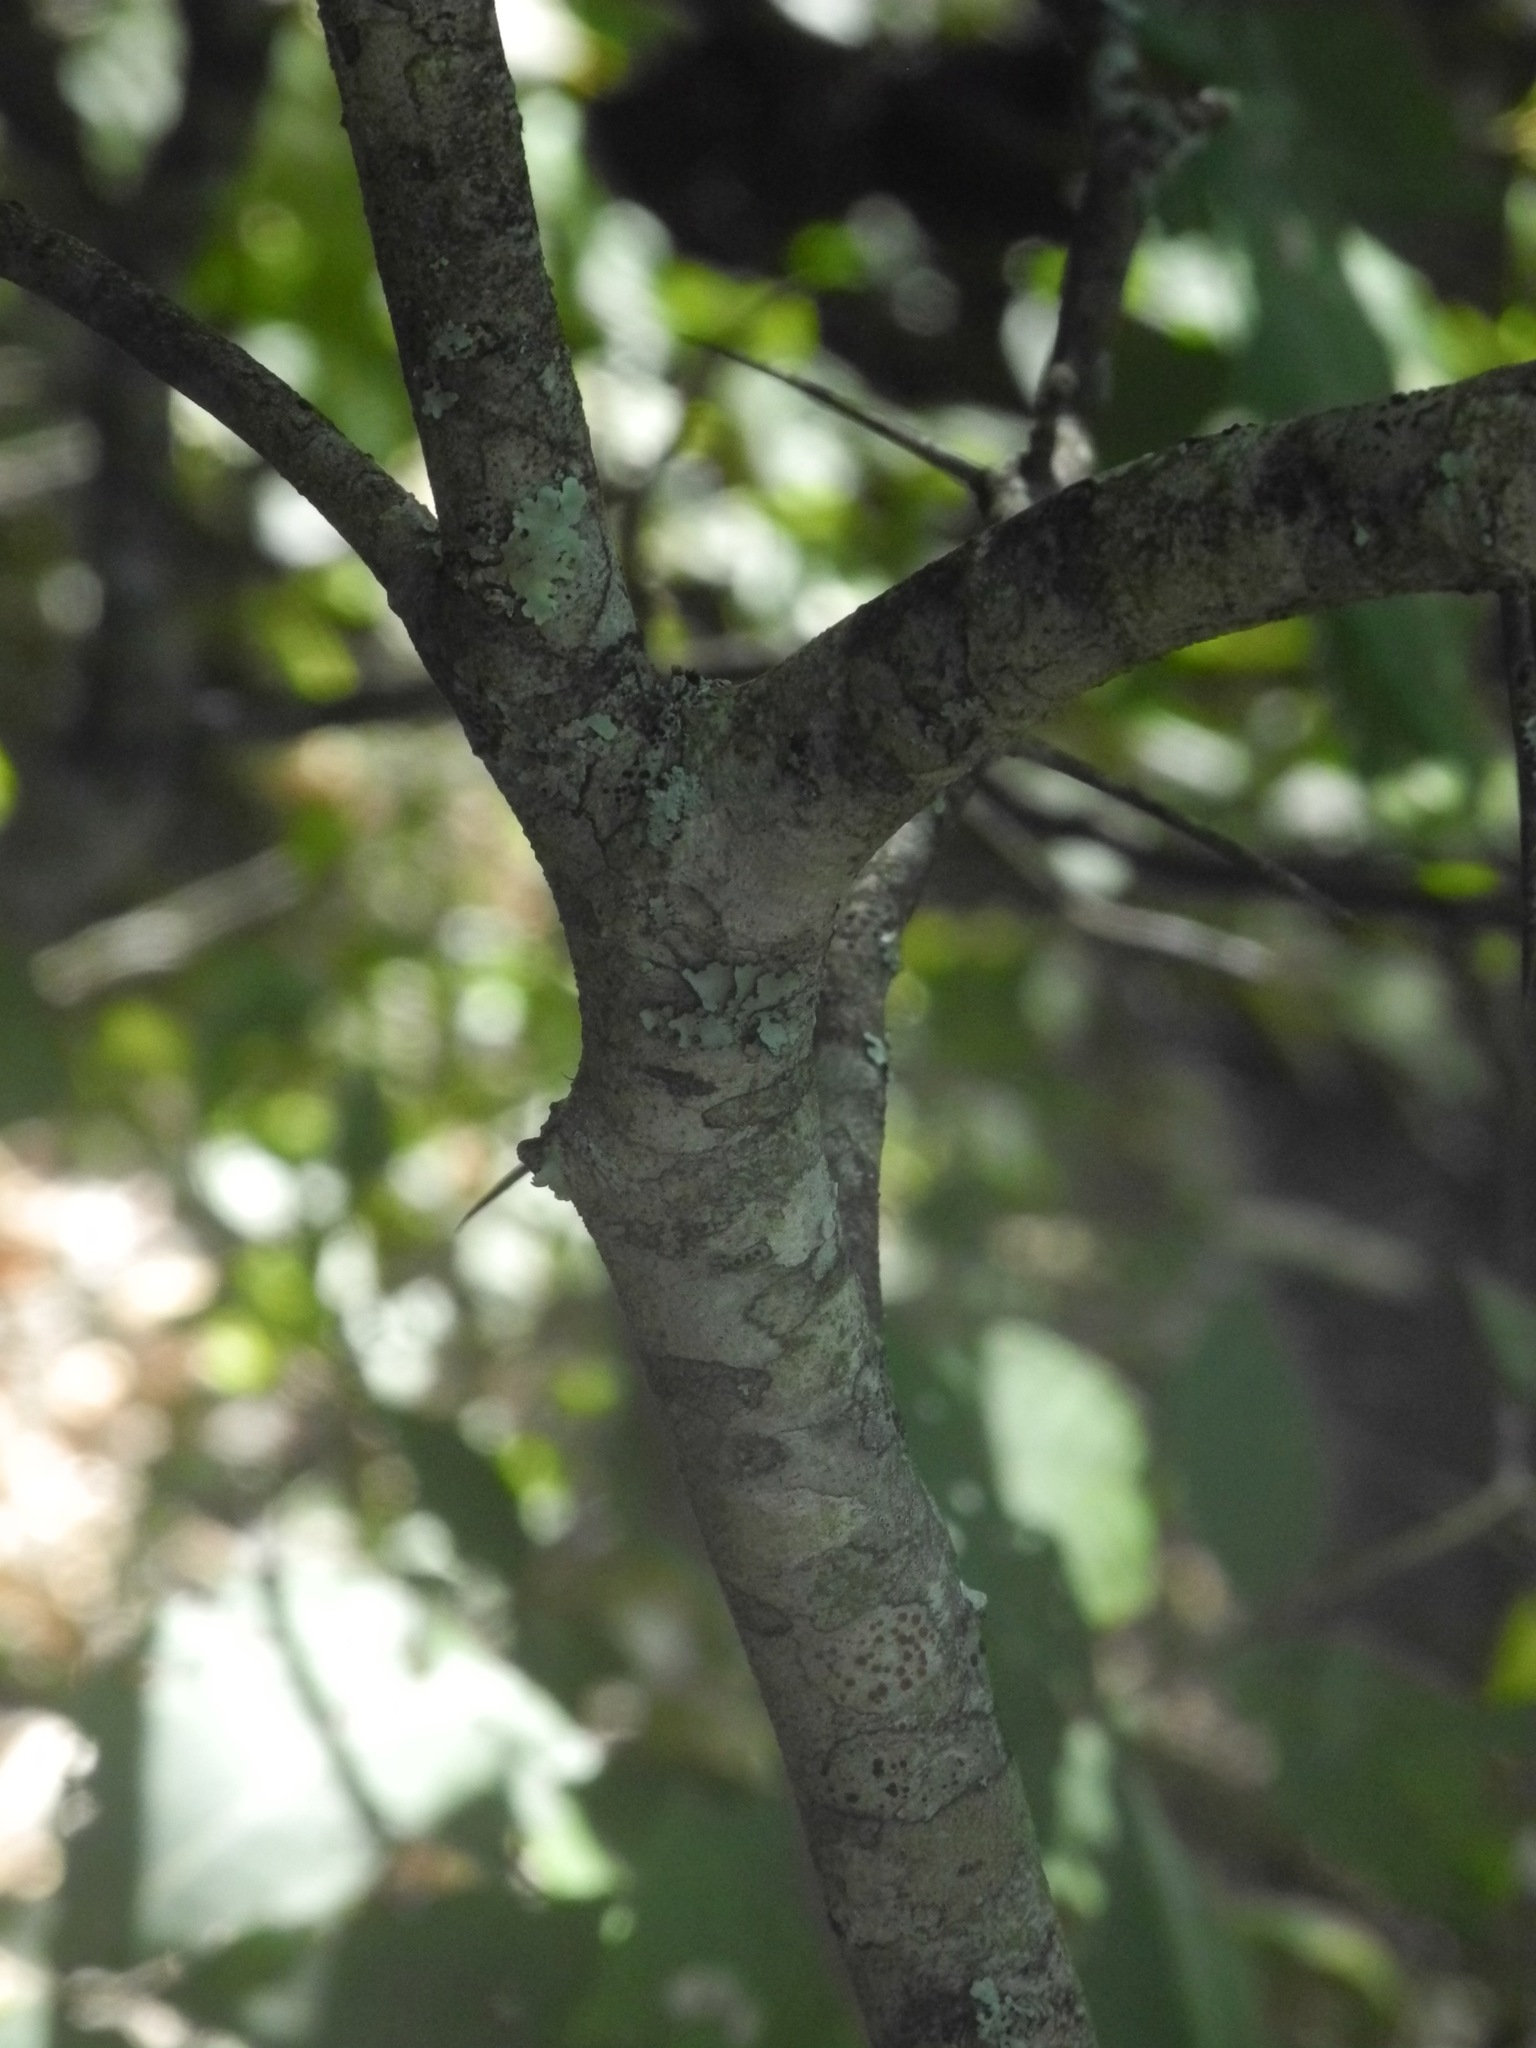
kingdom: Plantae
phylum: Tracheophyta
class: Magnoliopsida
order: Rosales
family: Rosaceae
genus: Crataegus
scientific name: Crataegus phaenopyrum
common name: Washington hawthorn
